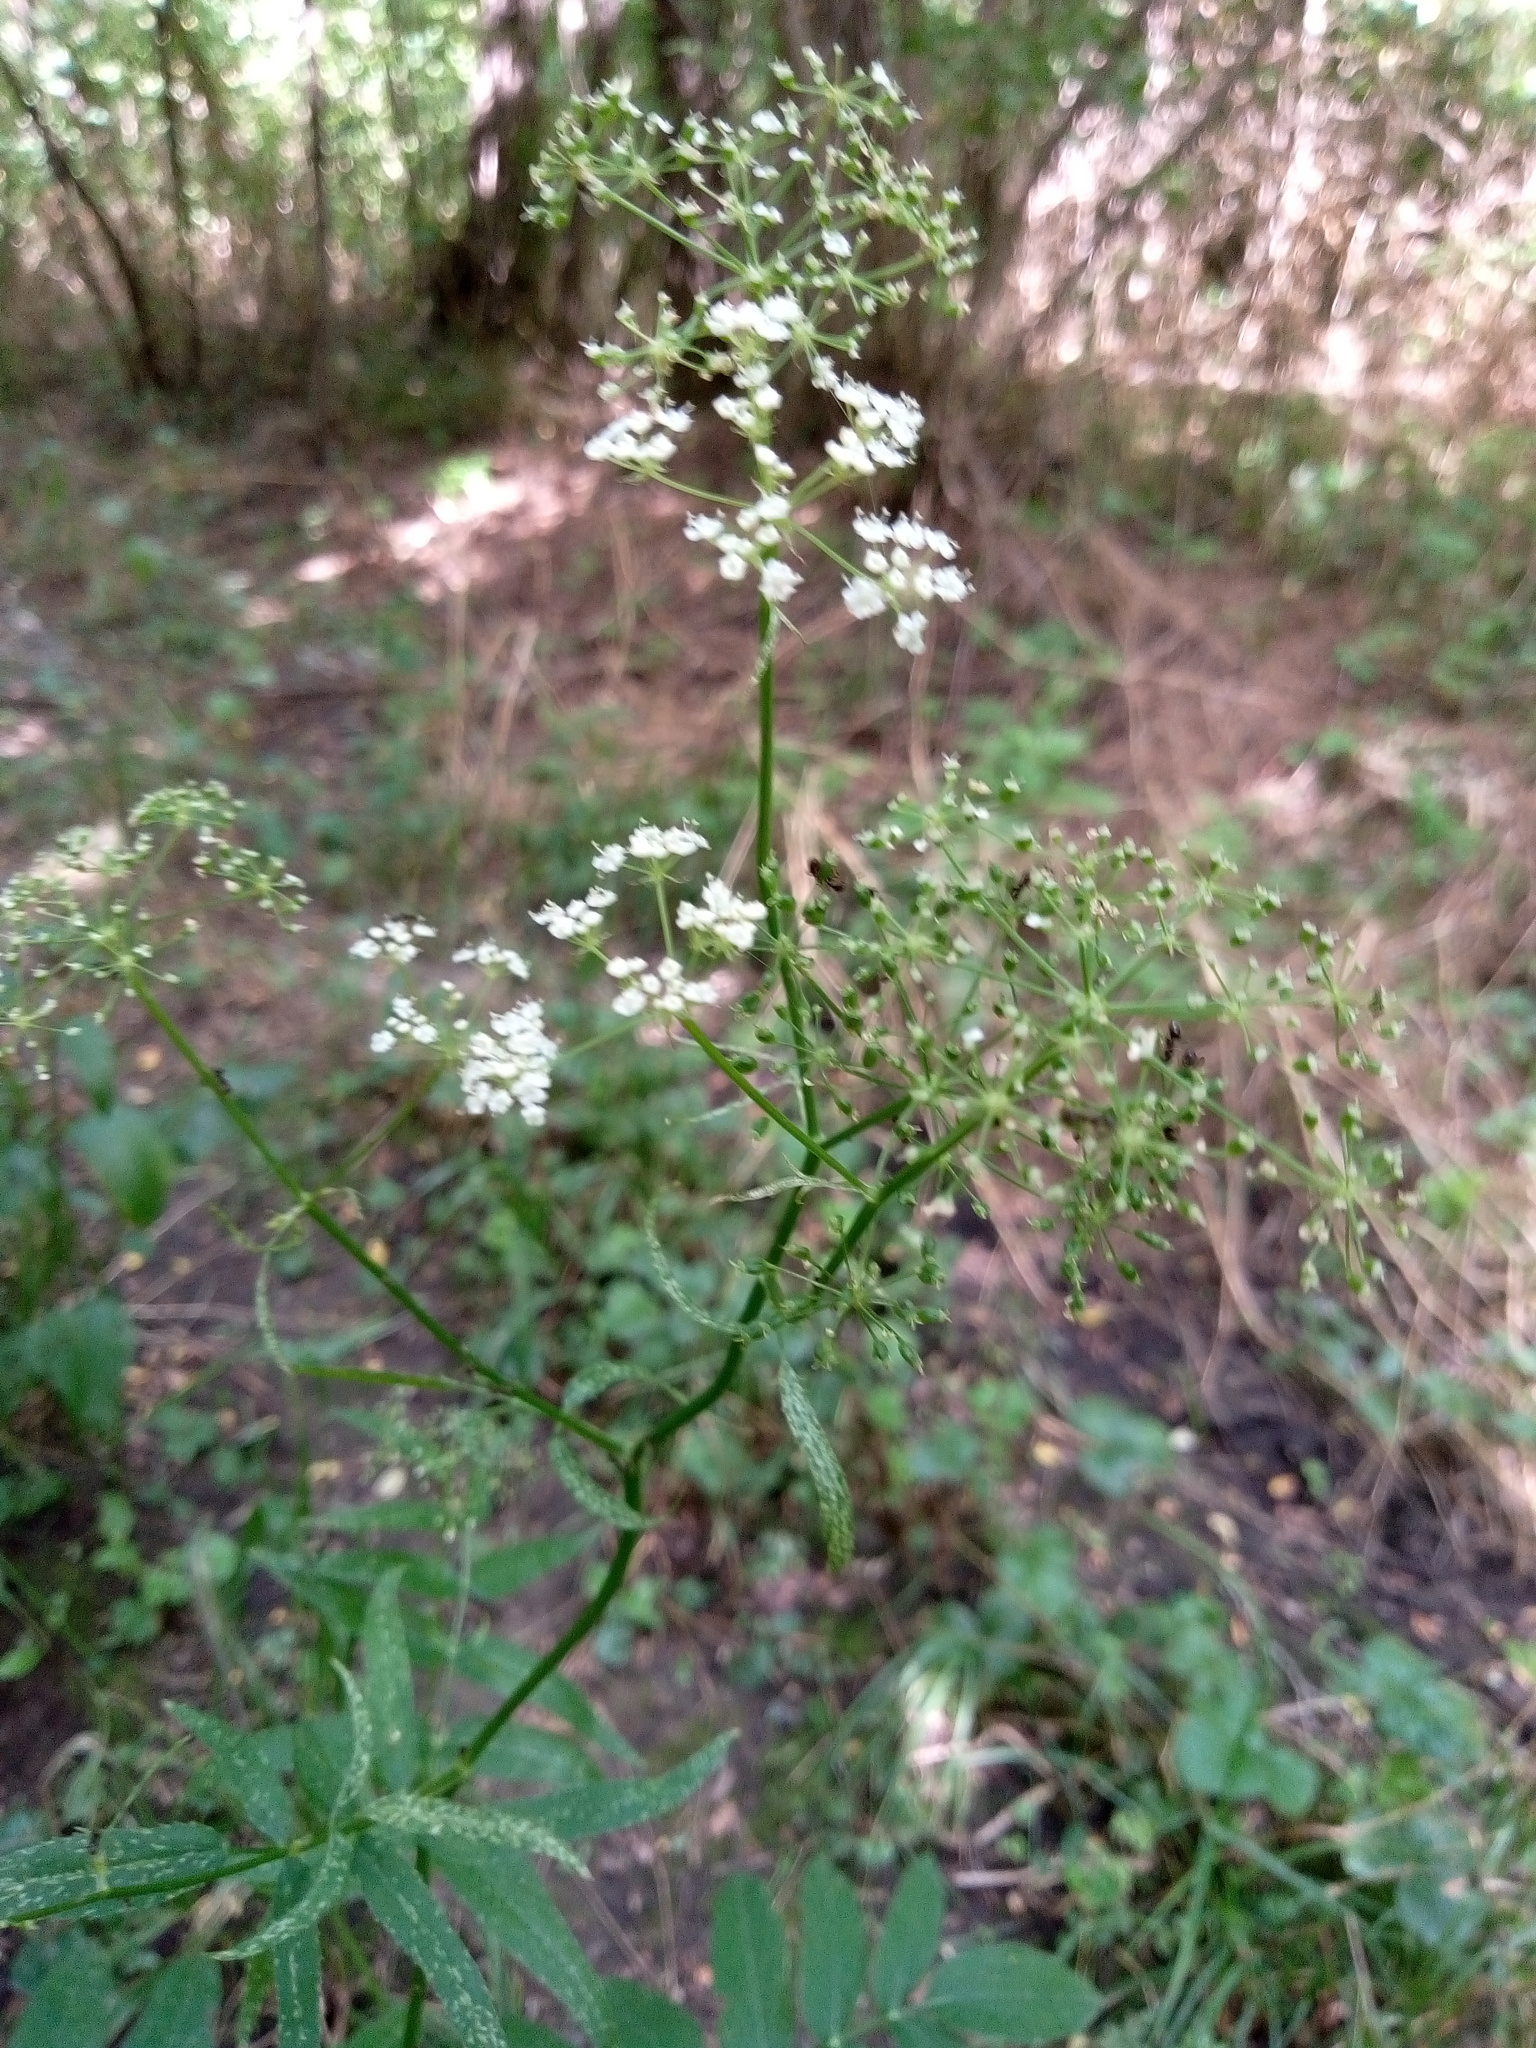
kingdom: Plantae
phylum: Tracheophyta
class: Magnoliopsida
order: Apiales
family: Apiaceae
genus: Sium
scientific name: Sium latifolium
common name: Greater water-parsnip
